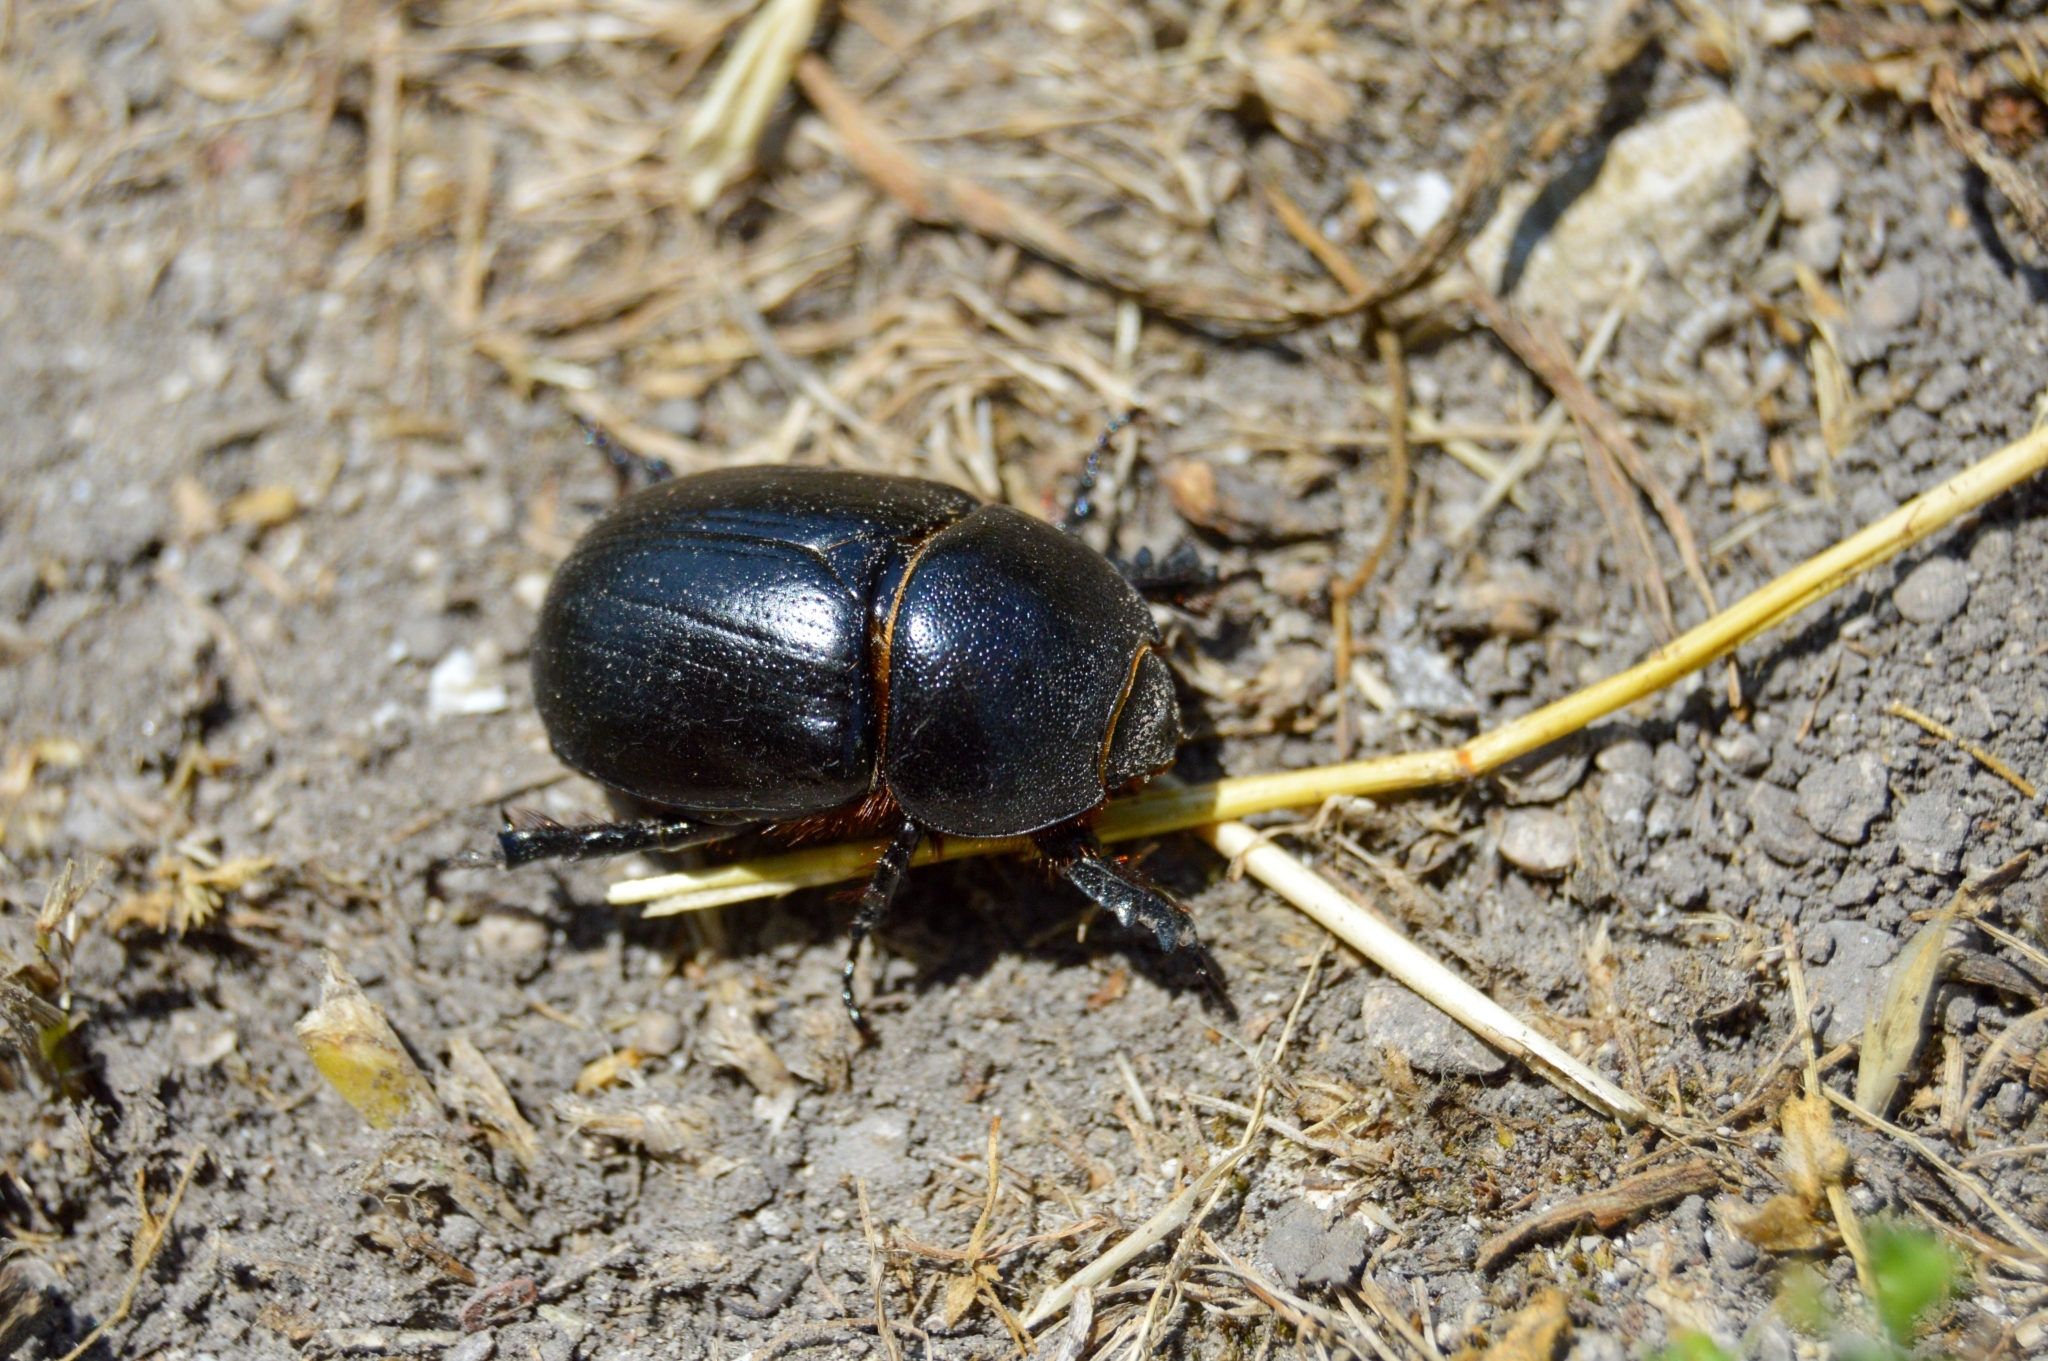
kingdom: Animalia
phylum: Arthropoda
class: Insecta
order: Coleoptera
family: Scarabaeidae
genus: Pentodon
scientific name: Pentodon idiota
